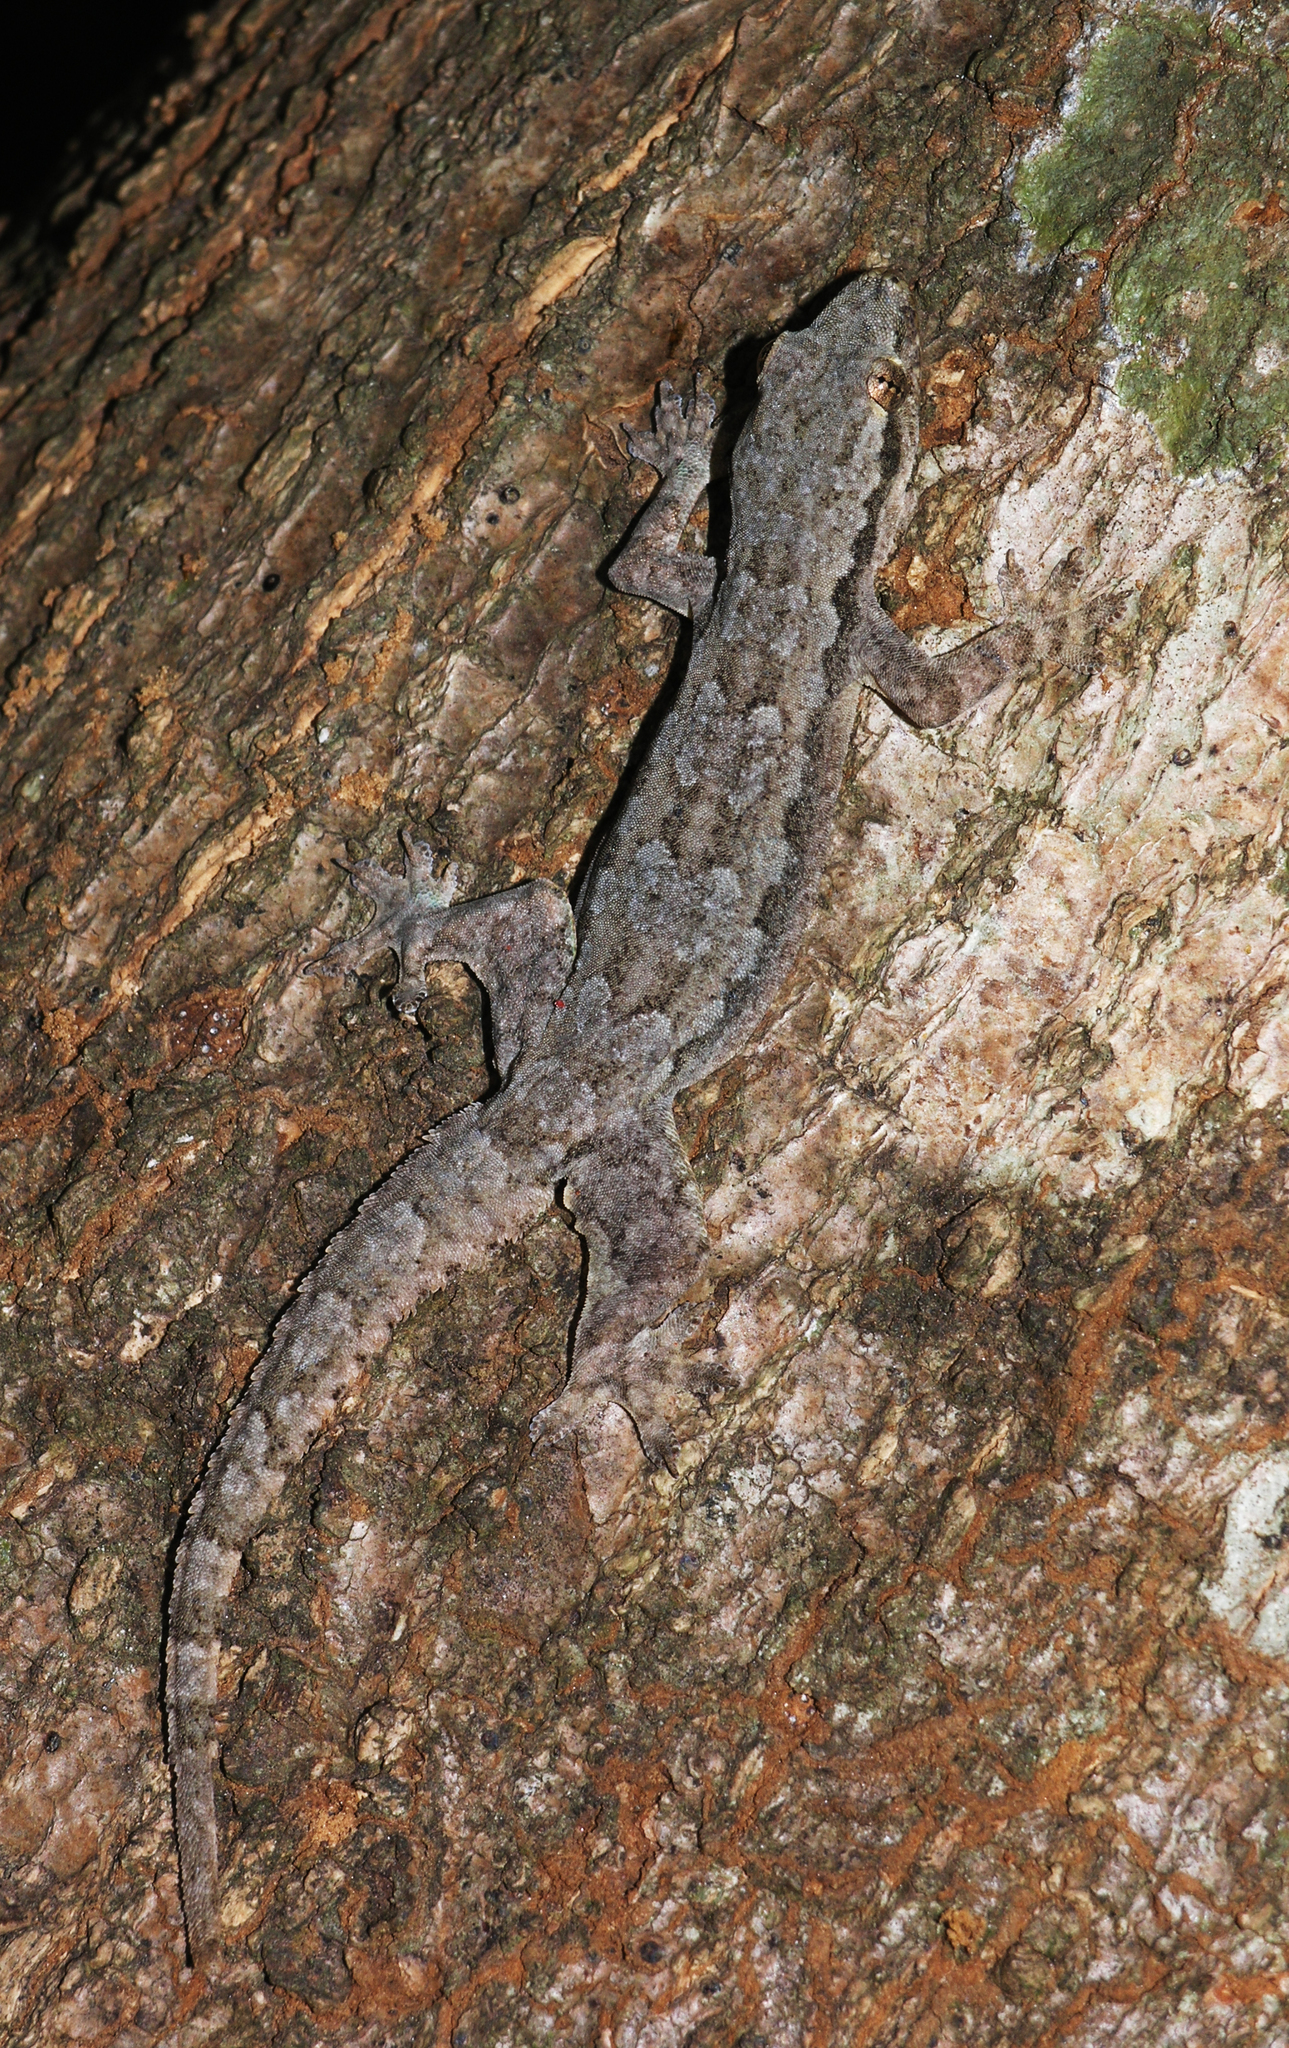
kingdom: Animalia
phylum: Chordata
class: Squamata
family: Gekkonidae
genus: Hemidactylus
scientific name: Hemidactylus platyurus
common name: Flat-tailed house gecko
